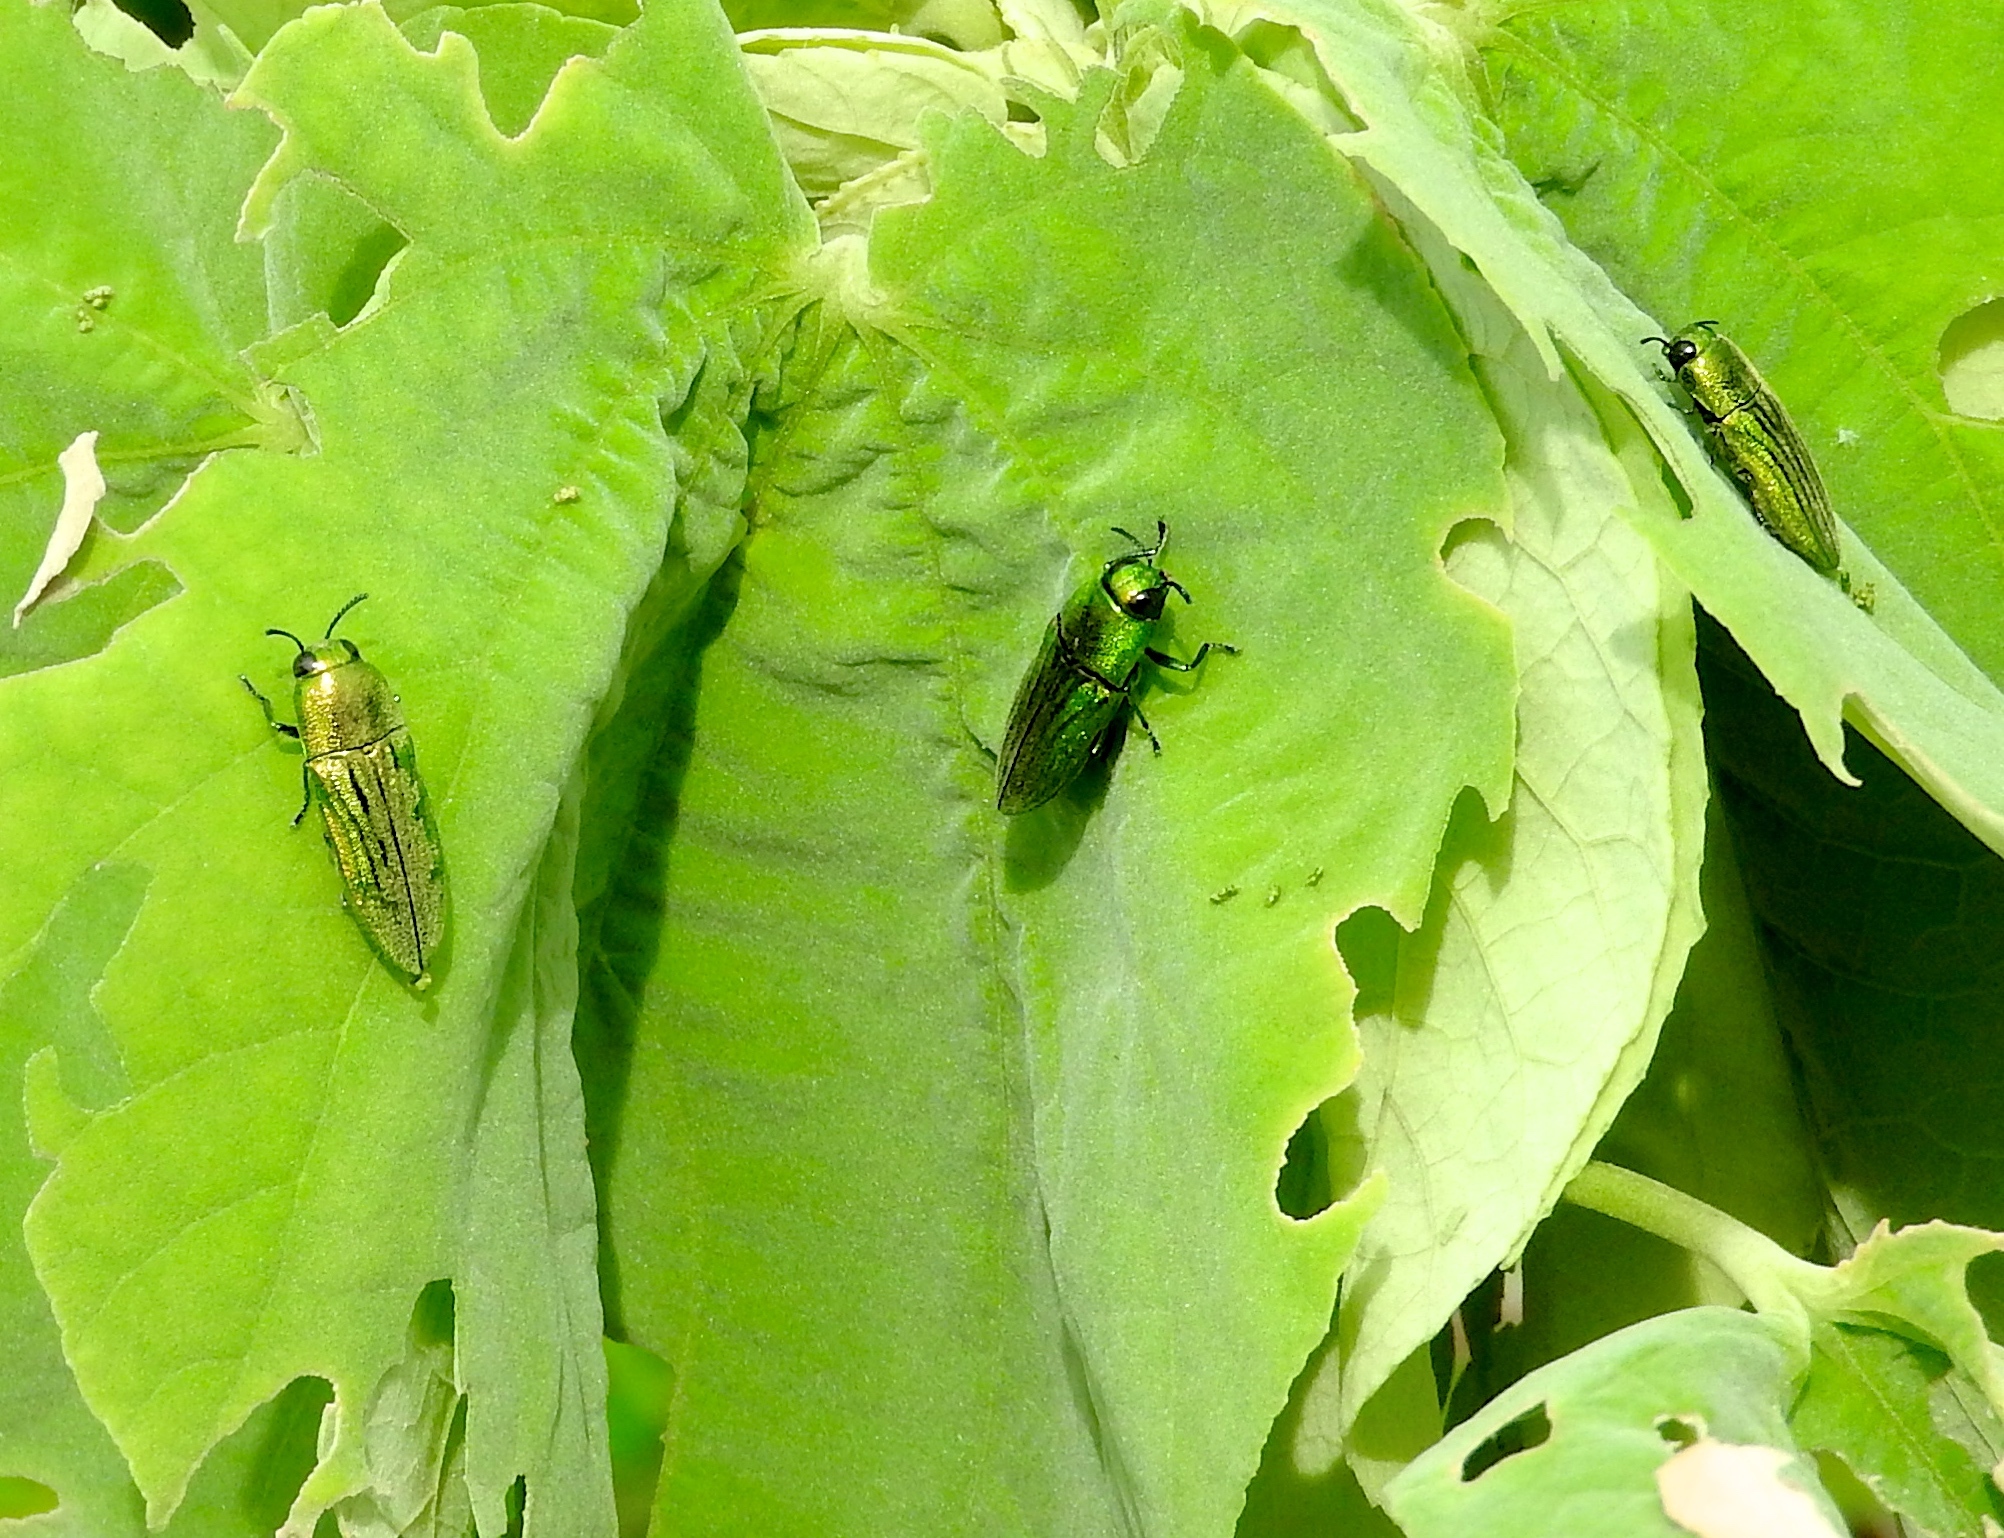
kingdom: Animalia
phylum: Arthropoda
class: Insecta
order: Coleoptera
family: Buprestidae
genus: Agaeocera
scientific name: Agaeocera
